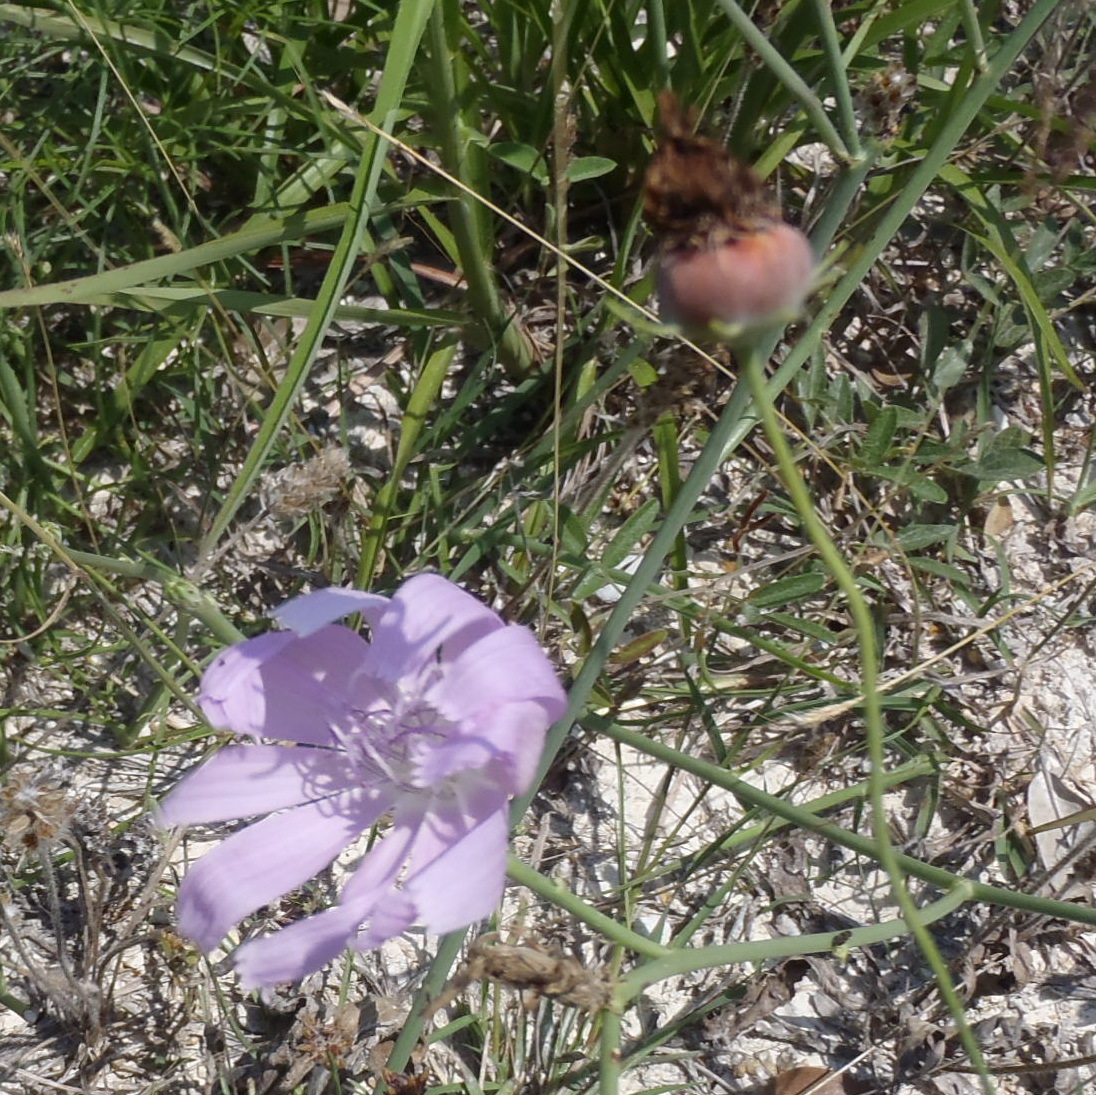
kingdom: Plantae
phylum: Tracheophyta
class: Magnoliopsida
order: Asterales
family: Asteraceae
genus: Lygodesmia
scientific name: Lygodesmia texana
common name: Texas skeleton-plant
